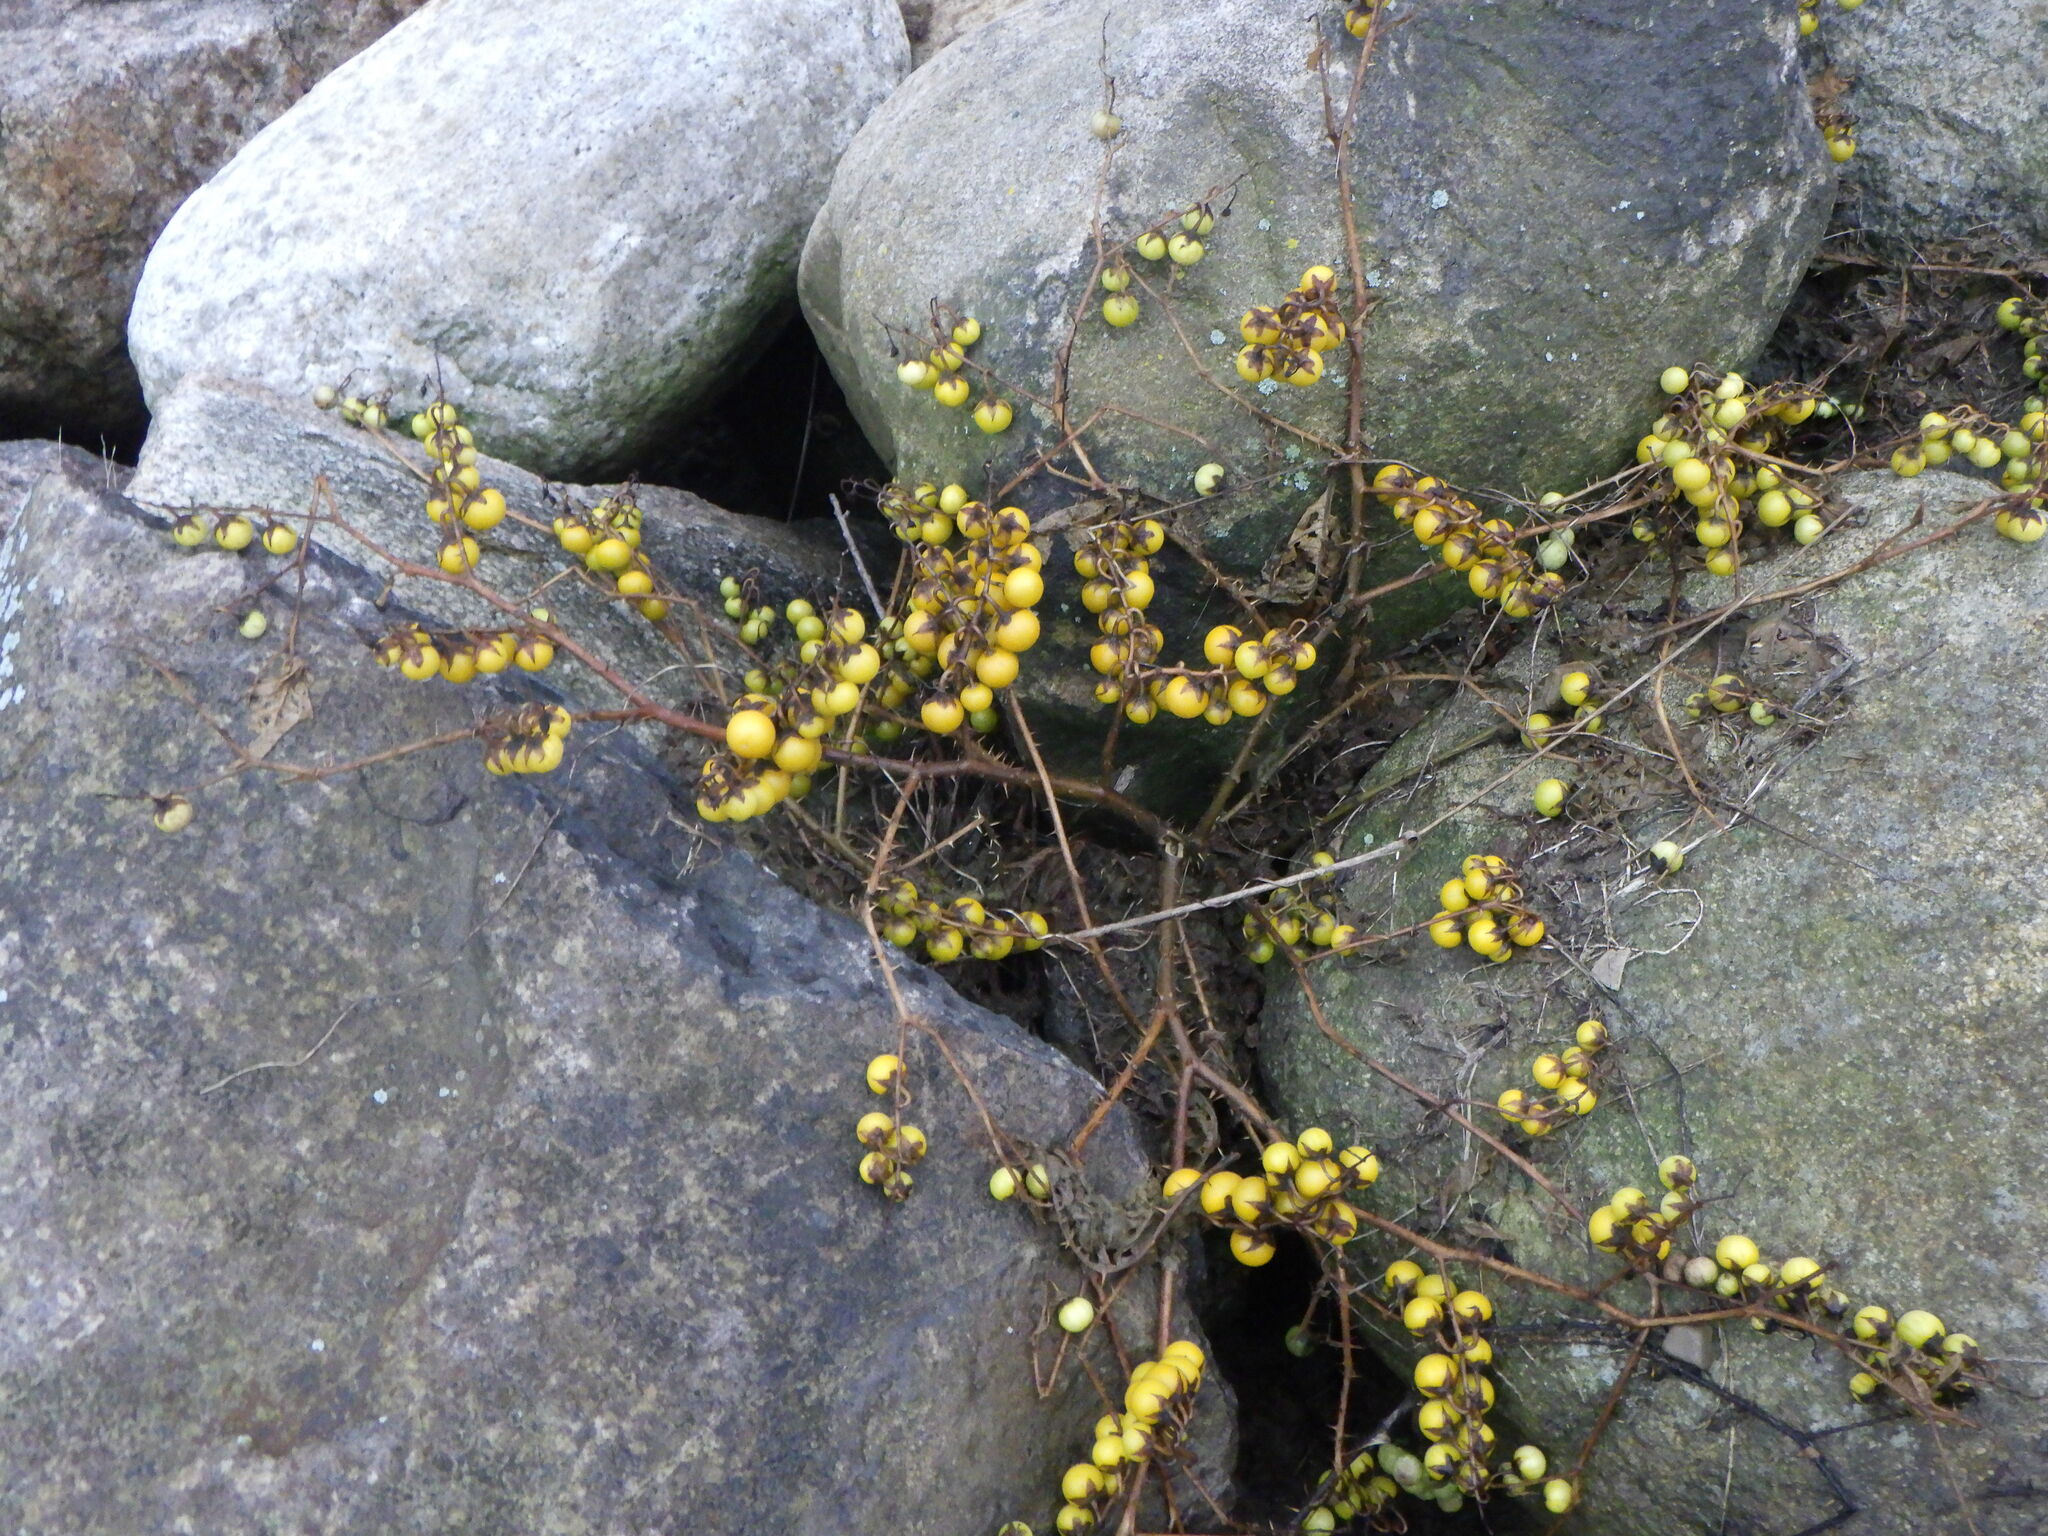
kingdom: Plantae
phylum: Tracheophyta
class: Magnoliopsida
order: Solanales
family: Solanaceae
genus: Solanum
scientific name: Solanum carolinense
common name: Horse-nettle
